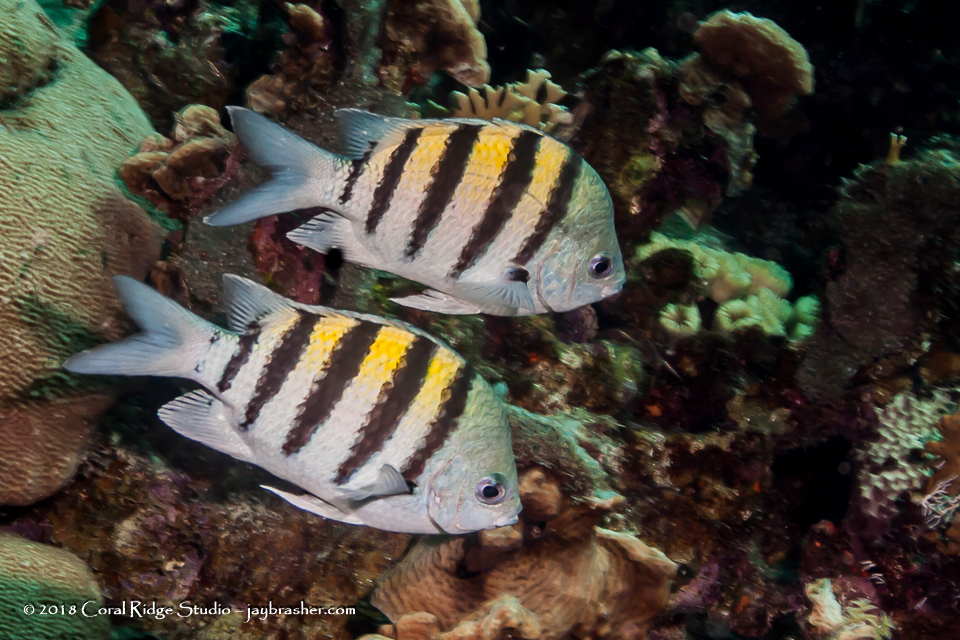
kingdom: Animalia
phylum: Chordata
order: Perciformes
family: Pomacentridae
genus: Abudefduf
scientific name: Abudefduf saxatilis
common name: Sergeant major
